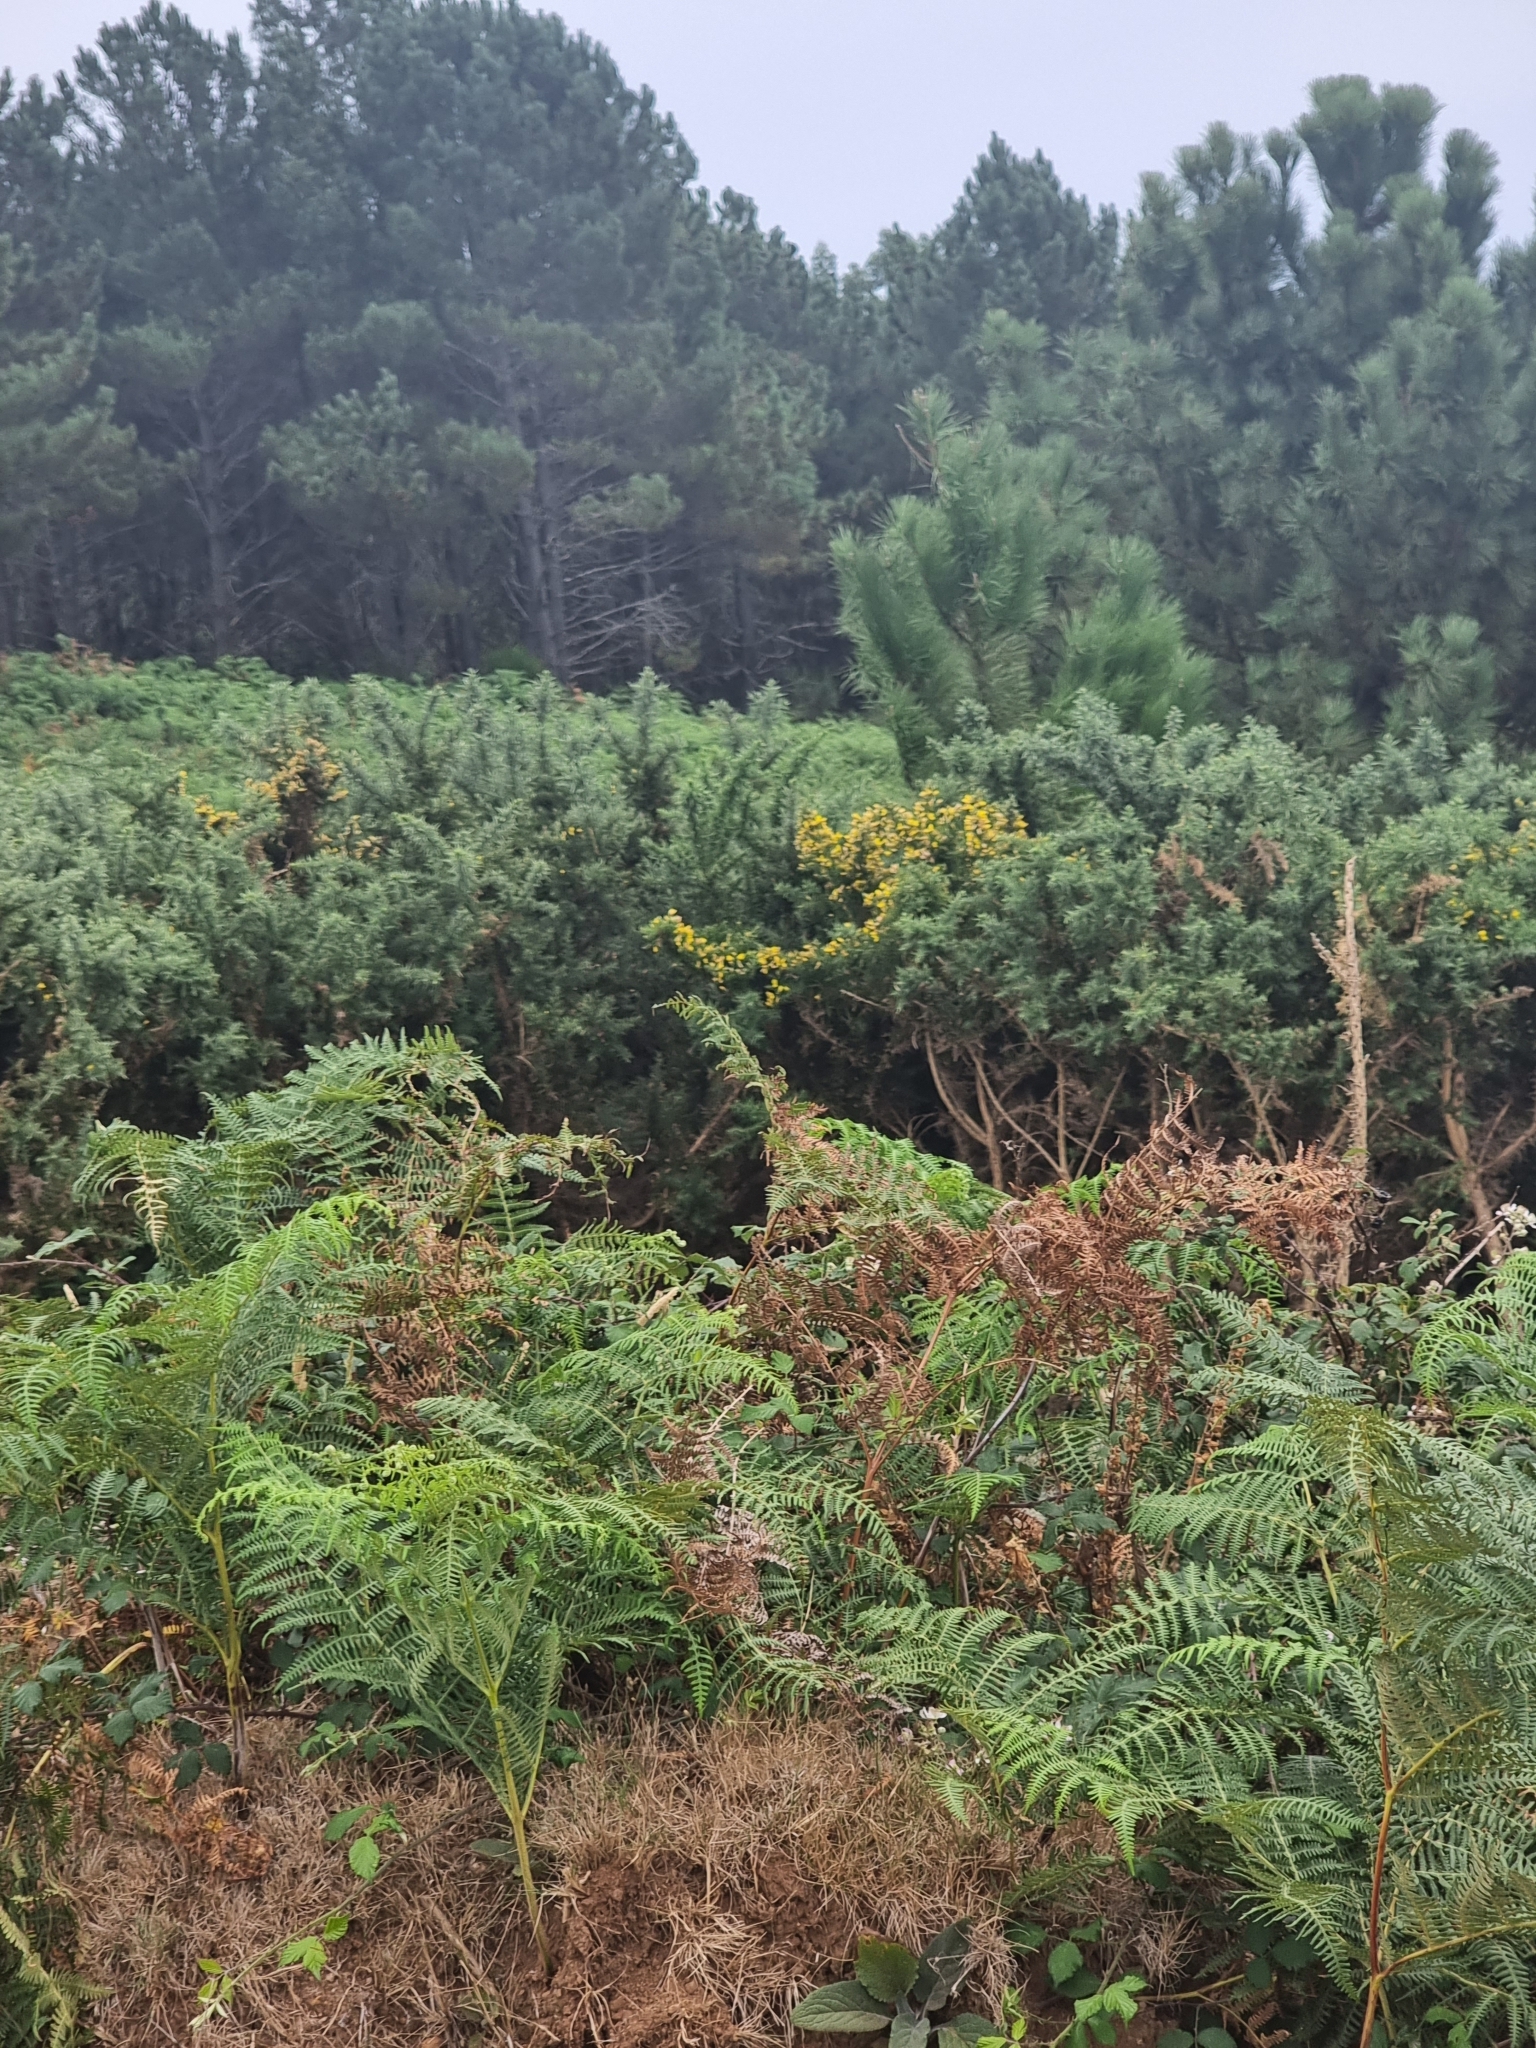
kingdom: Plantae
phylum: Tracheophyta
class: Magnoliopsida
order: Fabales
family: Fabaceae
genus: Ulex
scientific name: Ulex europaeus
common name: Common gorse
